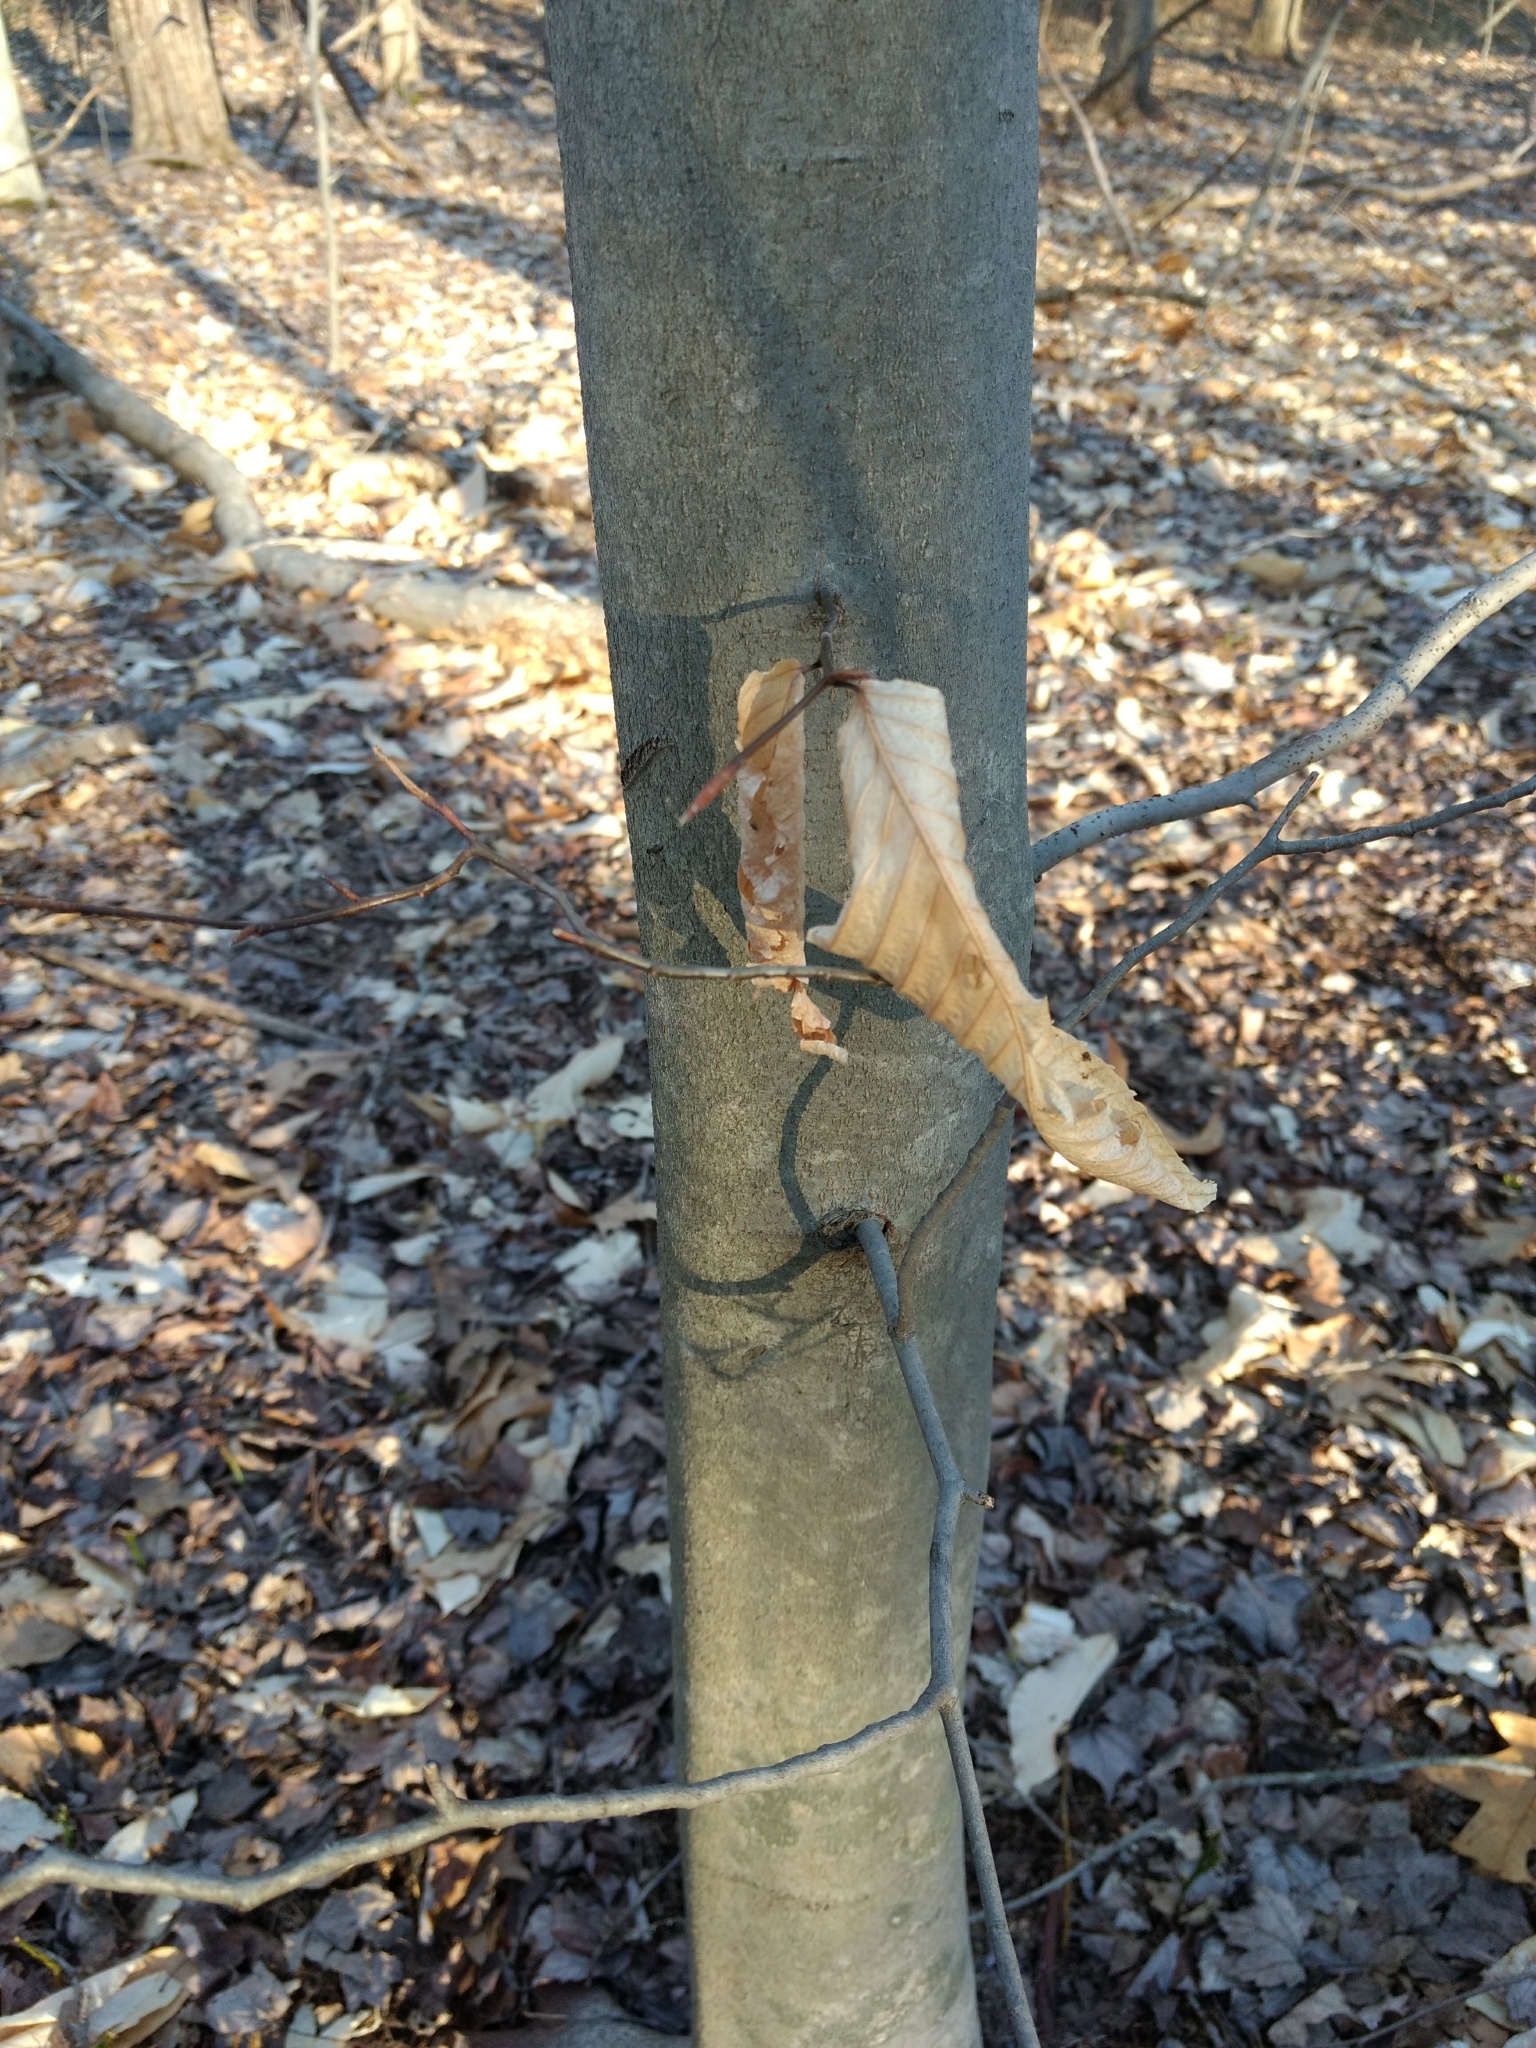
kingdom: Plantae
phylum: Tracheophyta
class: Magnoliopsida
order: Fagales
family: Fagaceae
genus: Fagus
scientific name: Fagus grandifolia
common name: American beech
